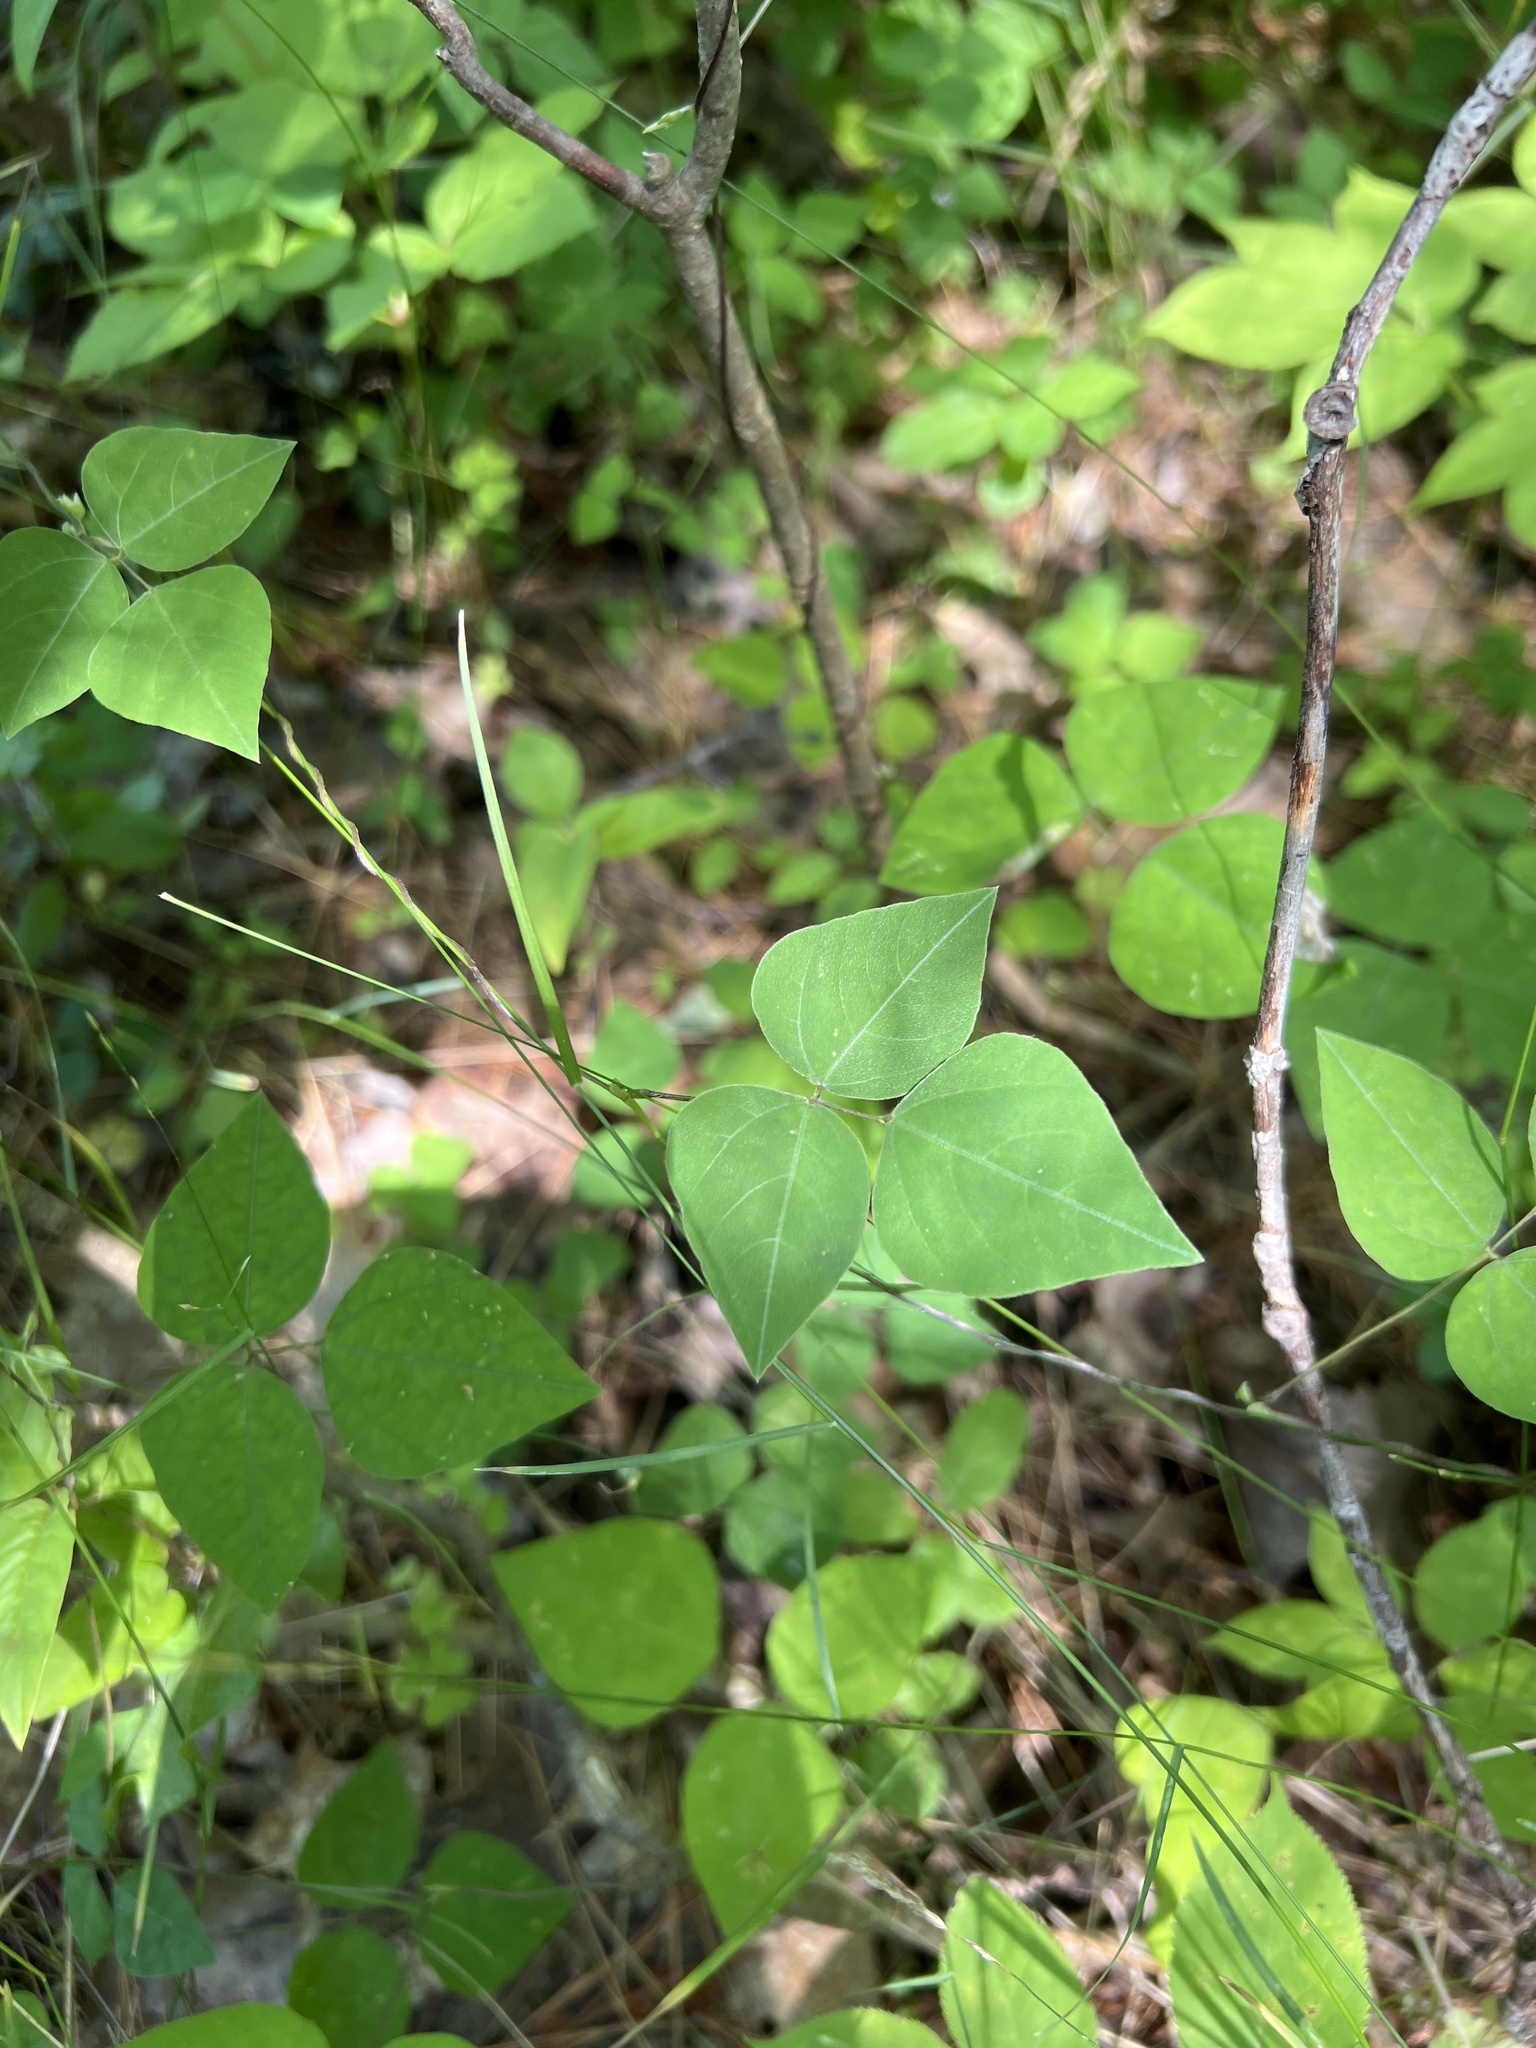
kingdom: Plantae
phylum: Tracheophyta
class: Magnoliopsida
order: Fabales
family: Fabaceae
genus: Amphicarpaea
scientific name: Amphicarpaea bracteata
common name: American hog peanut
